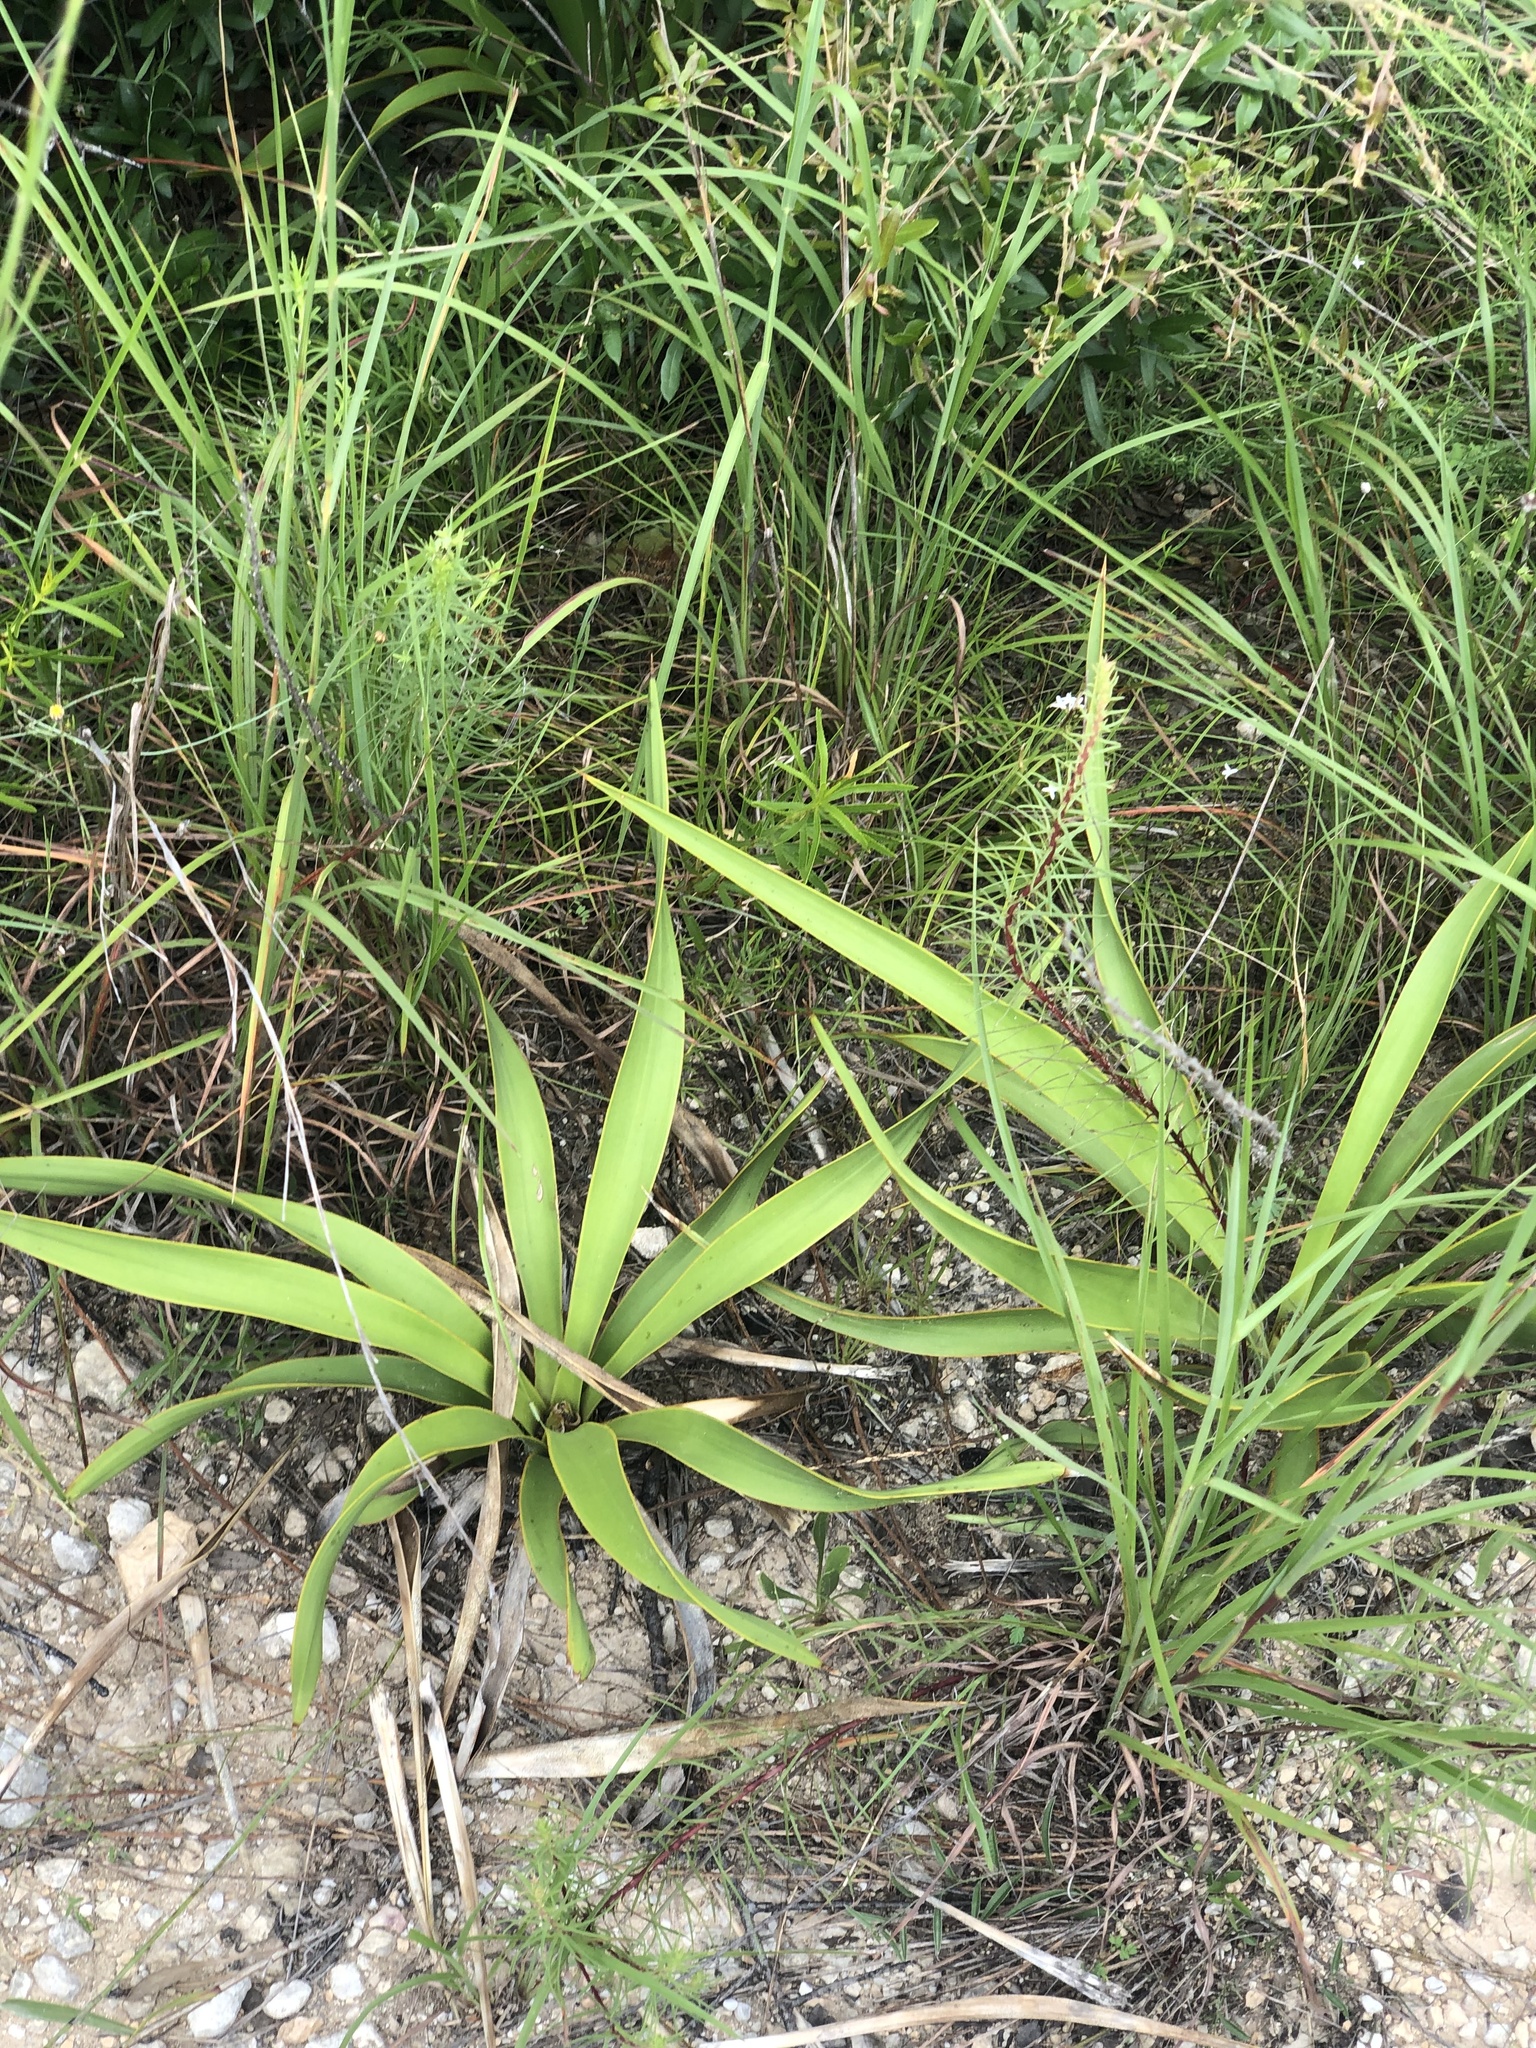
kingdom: Plantae
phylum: Tracheophyta
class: Liliopsida
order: Asparagales
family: Asparagaceae
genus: Yucca
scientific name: Yucca rupicola
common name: Twisted-leaf spanish-dagger
